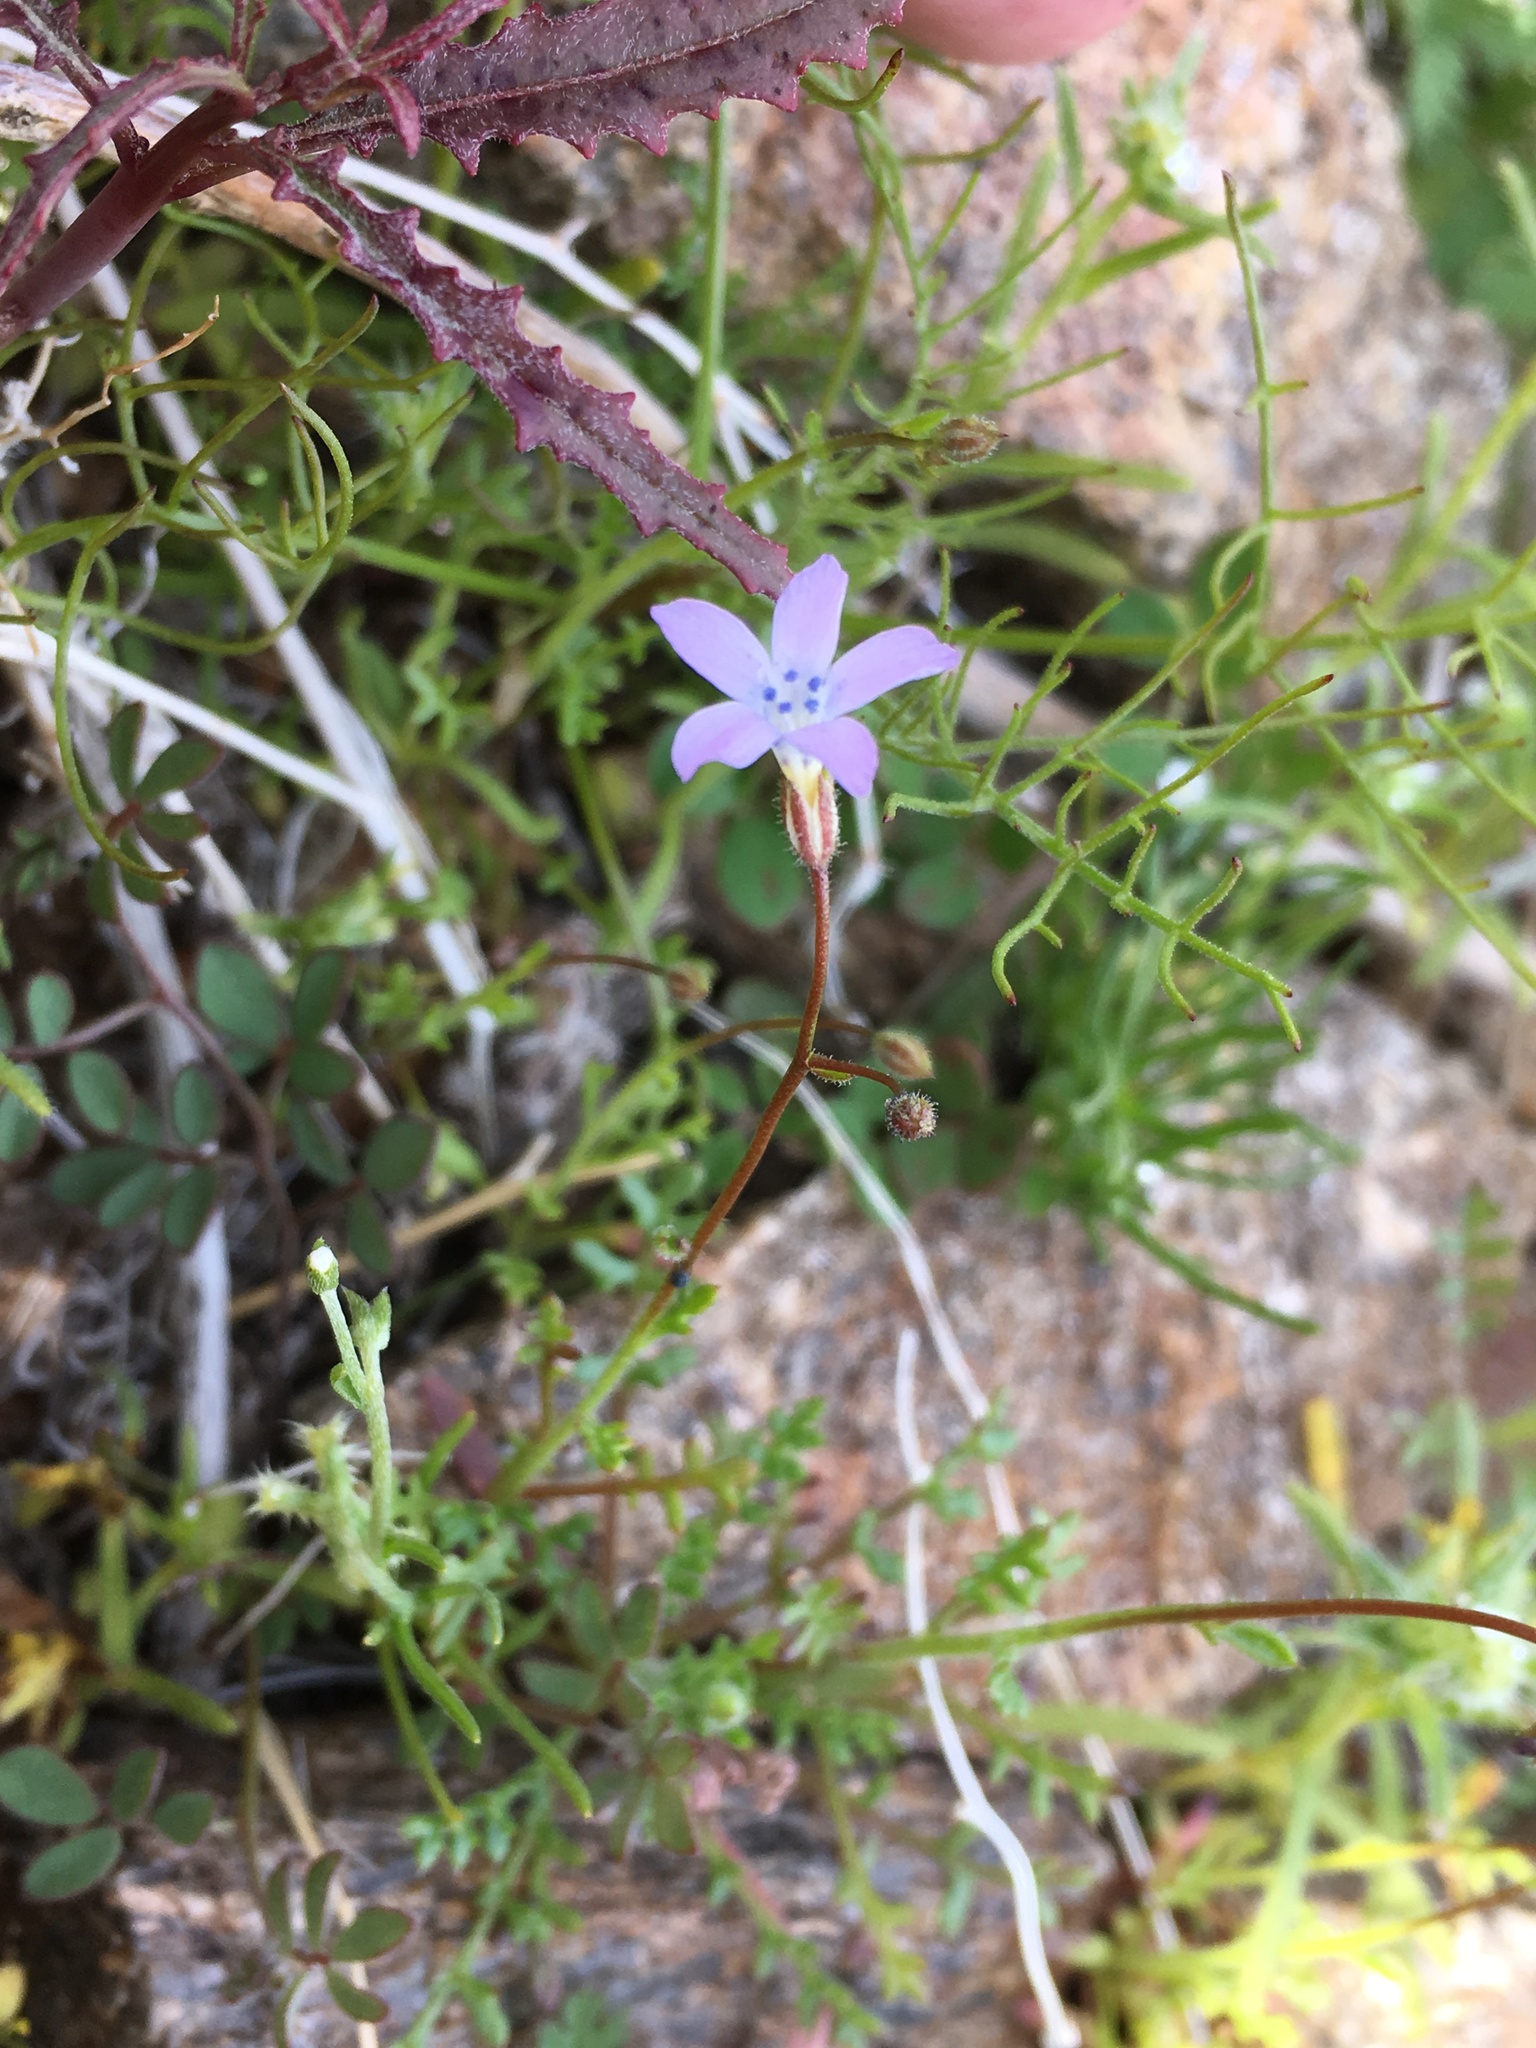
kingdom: Plantae
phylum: Tracheophyta
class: Magnoliopsida
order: Ericales
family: Polemoniaceae
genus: Gilia
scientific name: Gilia stellata
